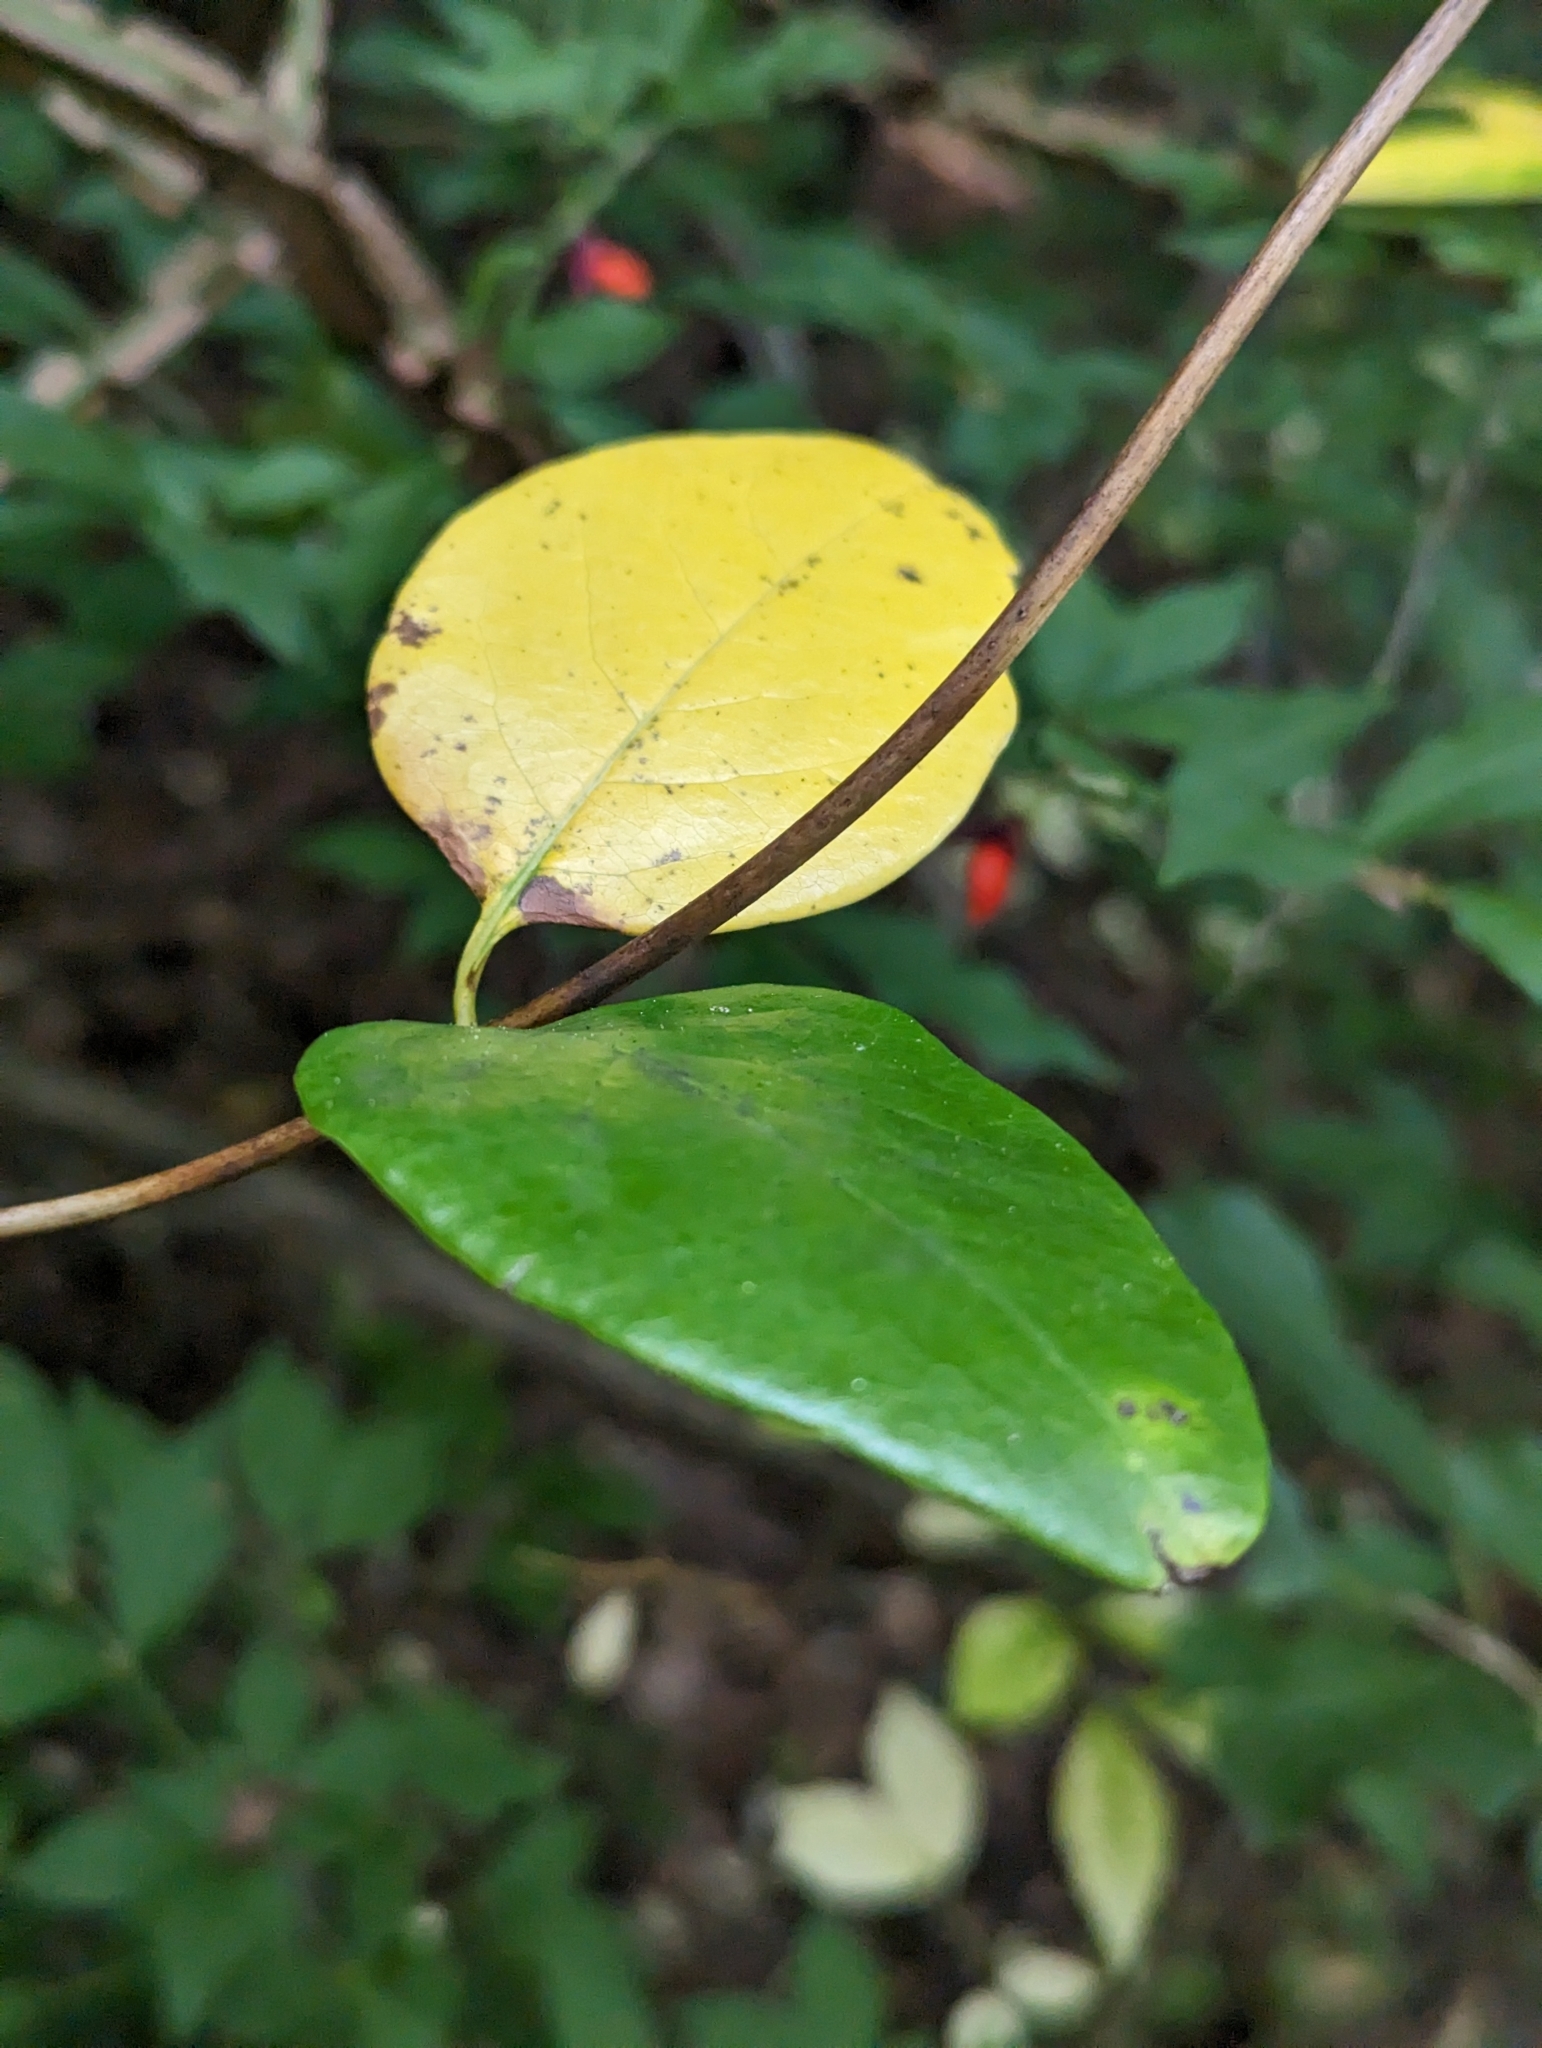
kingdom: Plantae
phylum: Tracheophyta
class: Magnoliopsida
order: Dipsacales
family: Caprifoliaceae
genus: Lonicera
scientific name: Lonicera sempervirens
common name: Coral honeysuckle
